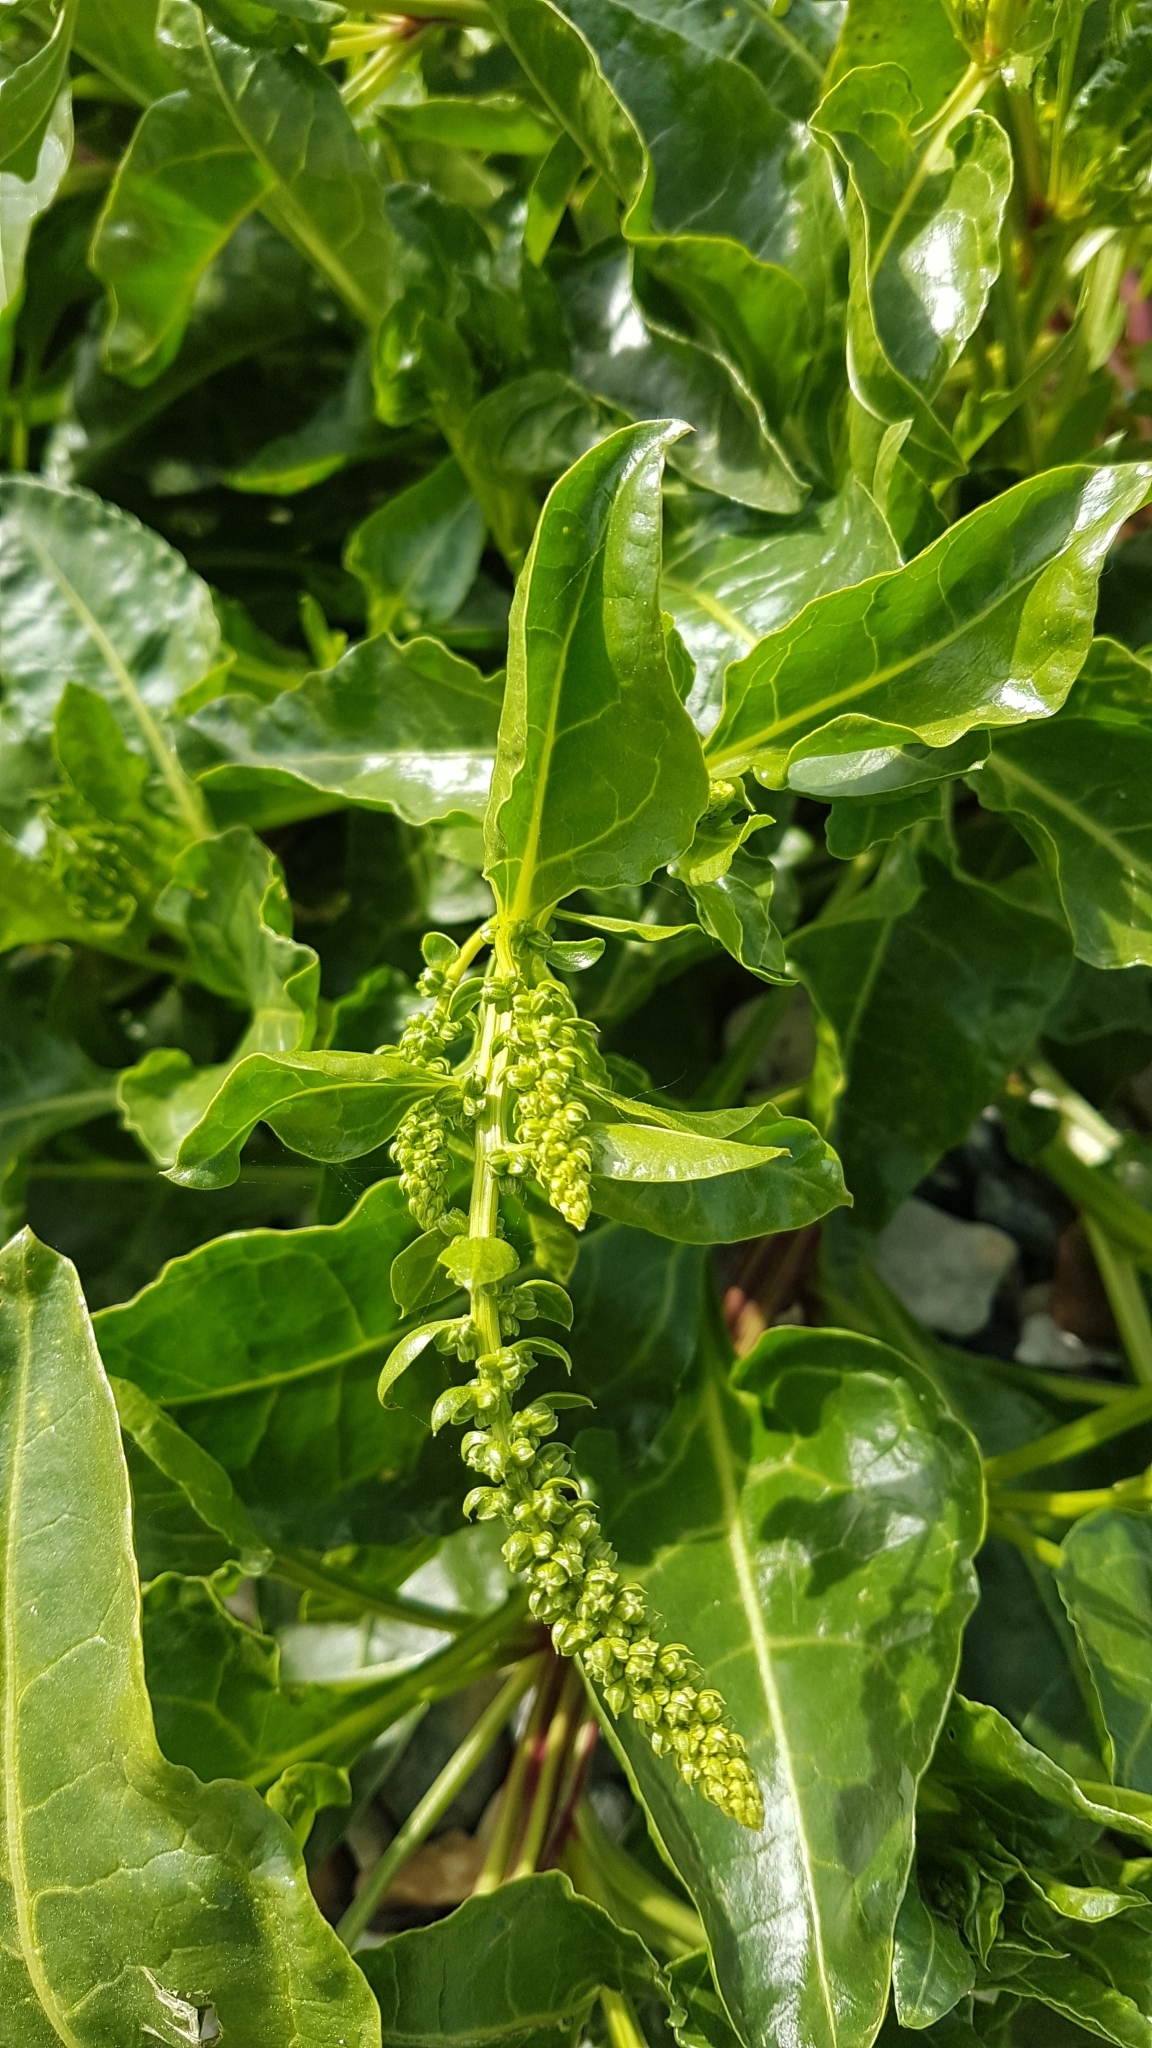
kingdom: Plantae
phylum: Tracheophyta
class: Magnoliopsida
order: Caryophyllales
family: Amaranthaceae
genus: Beta
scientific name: Beta vulgaris
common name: Beet
